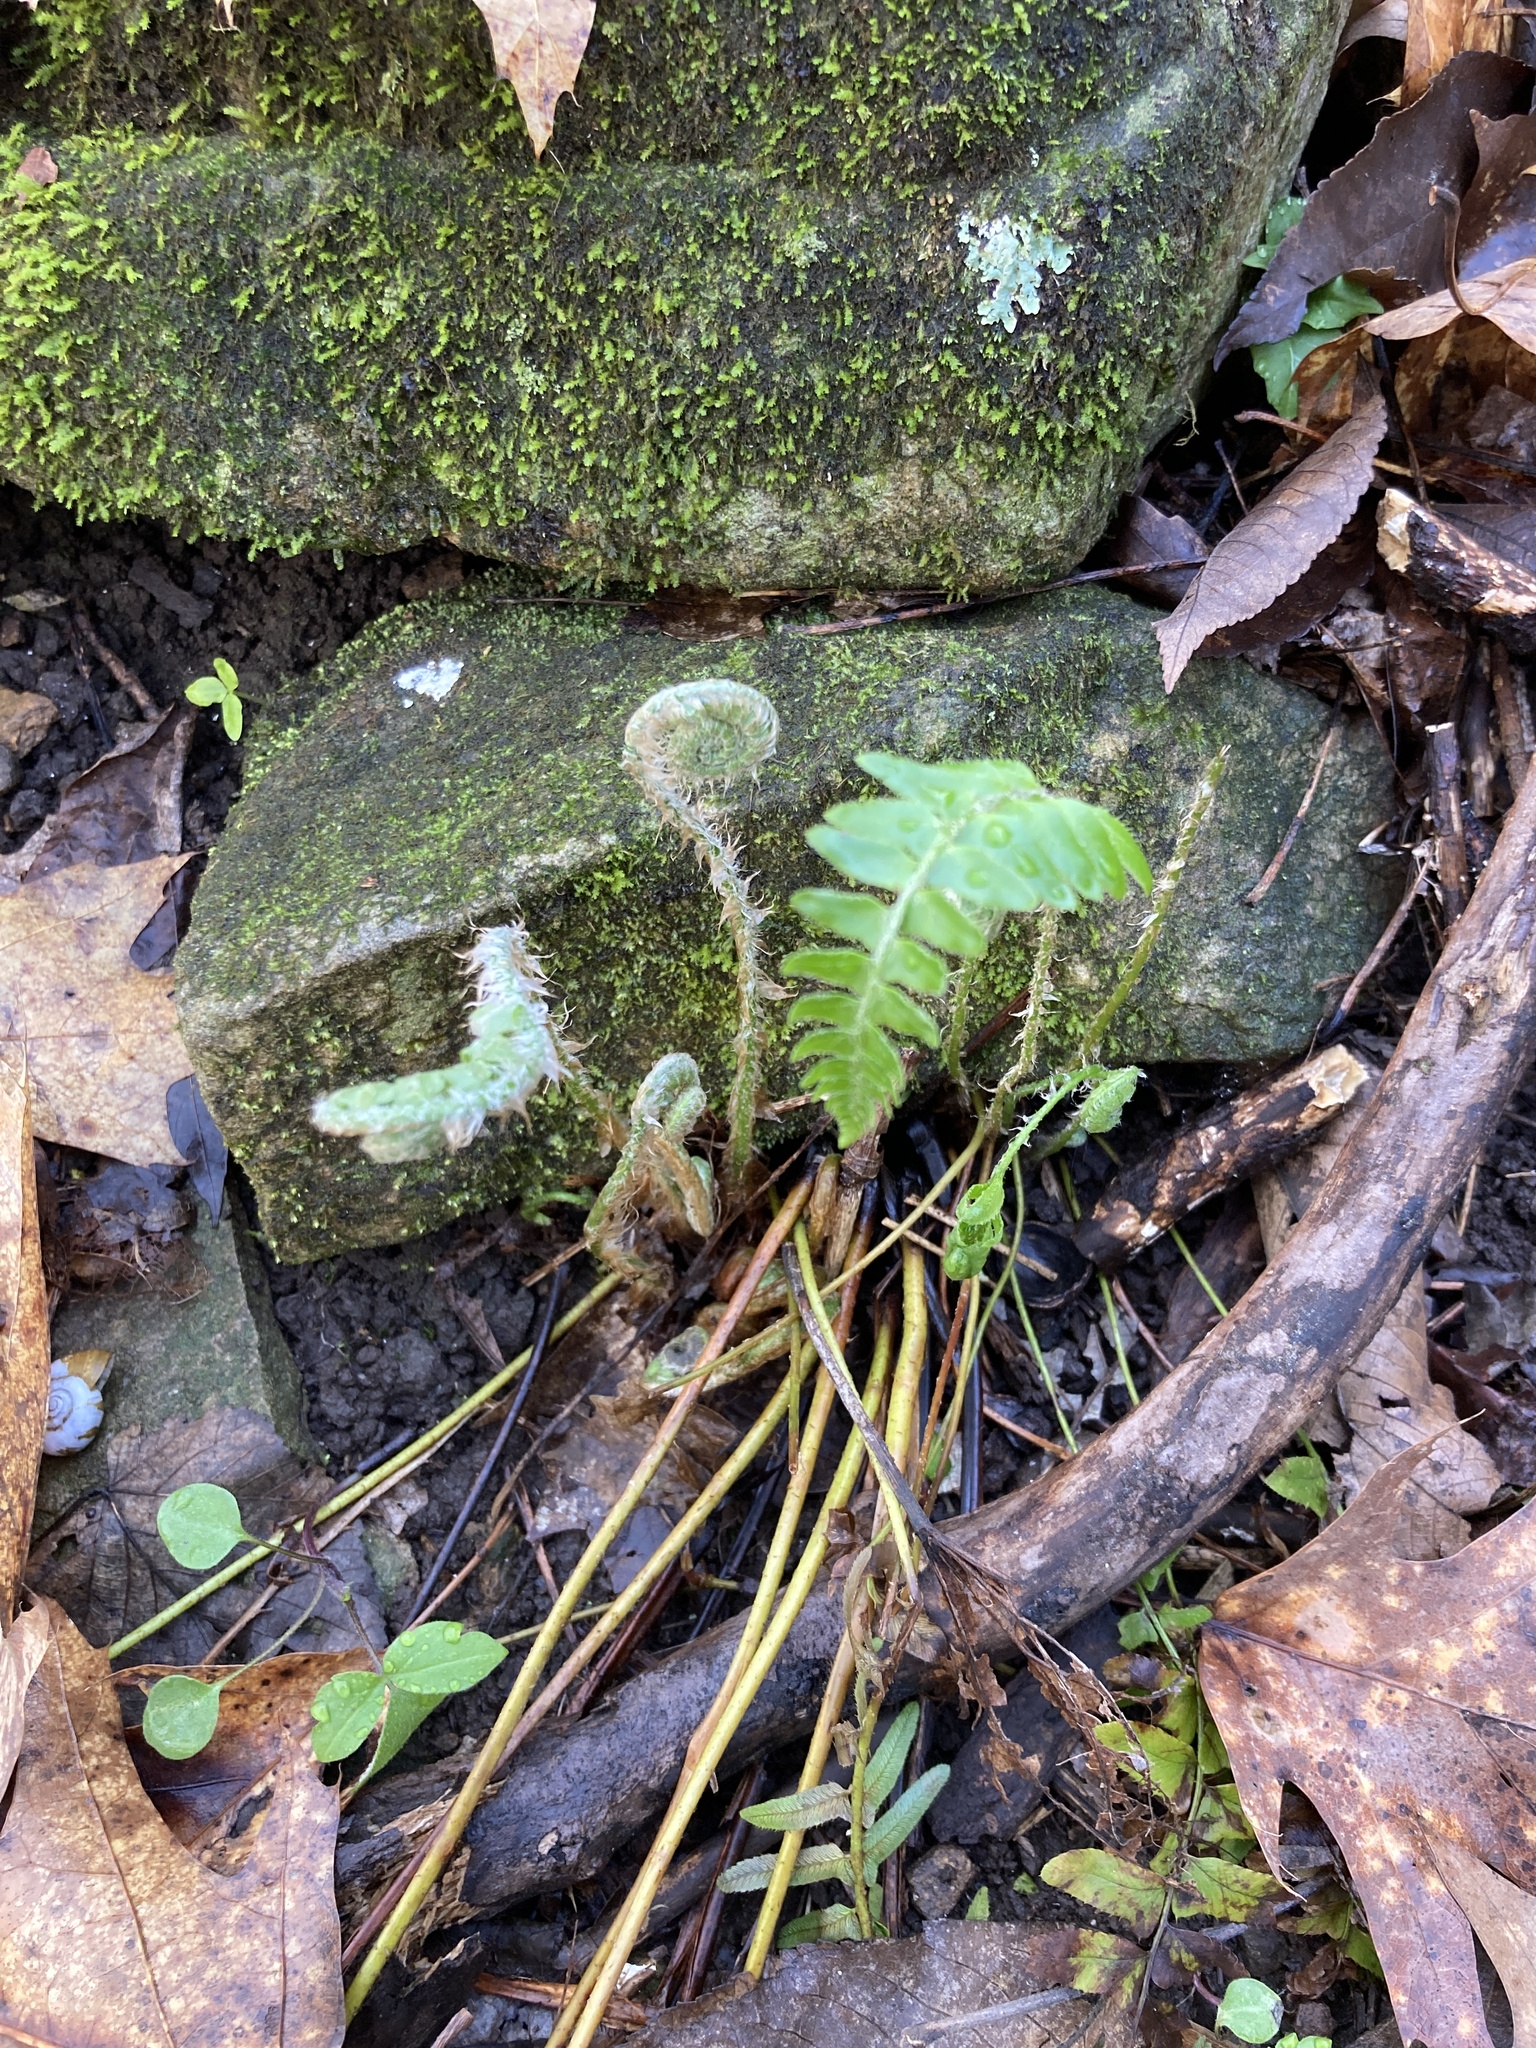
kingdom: Plantae
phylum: Tracheophyta
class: Polypodiopsida
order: Polypodiales
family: Dryopteridaceae
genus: Polystichum
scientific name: Polystichum acrostichoides
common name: Christmas fern
